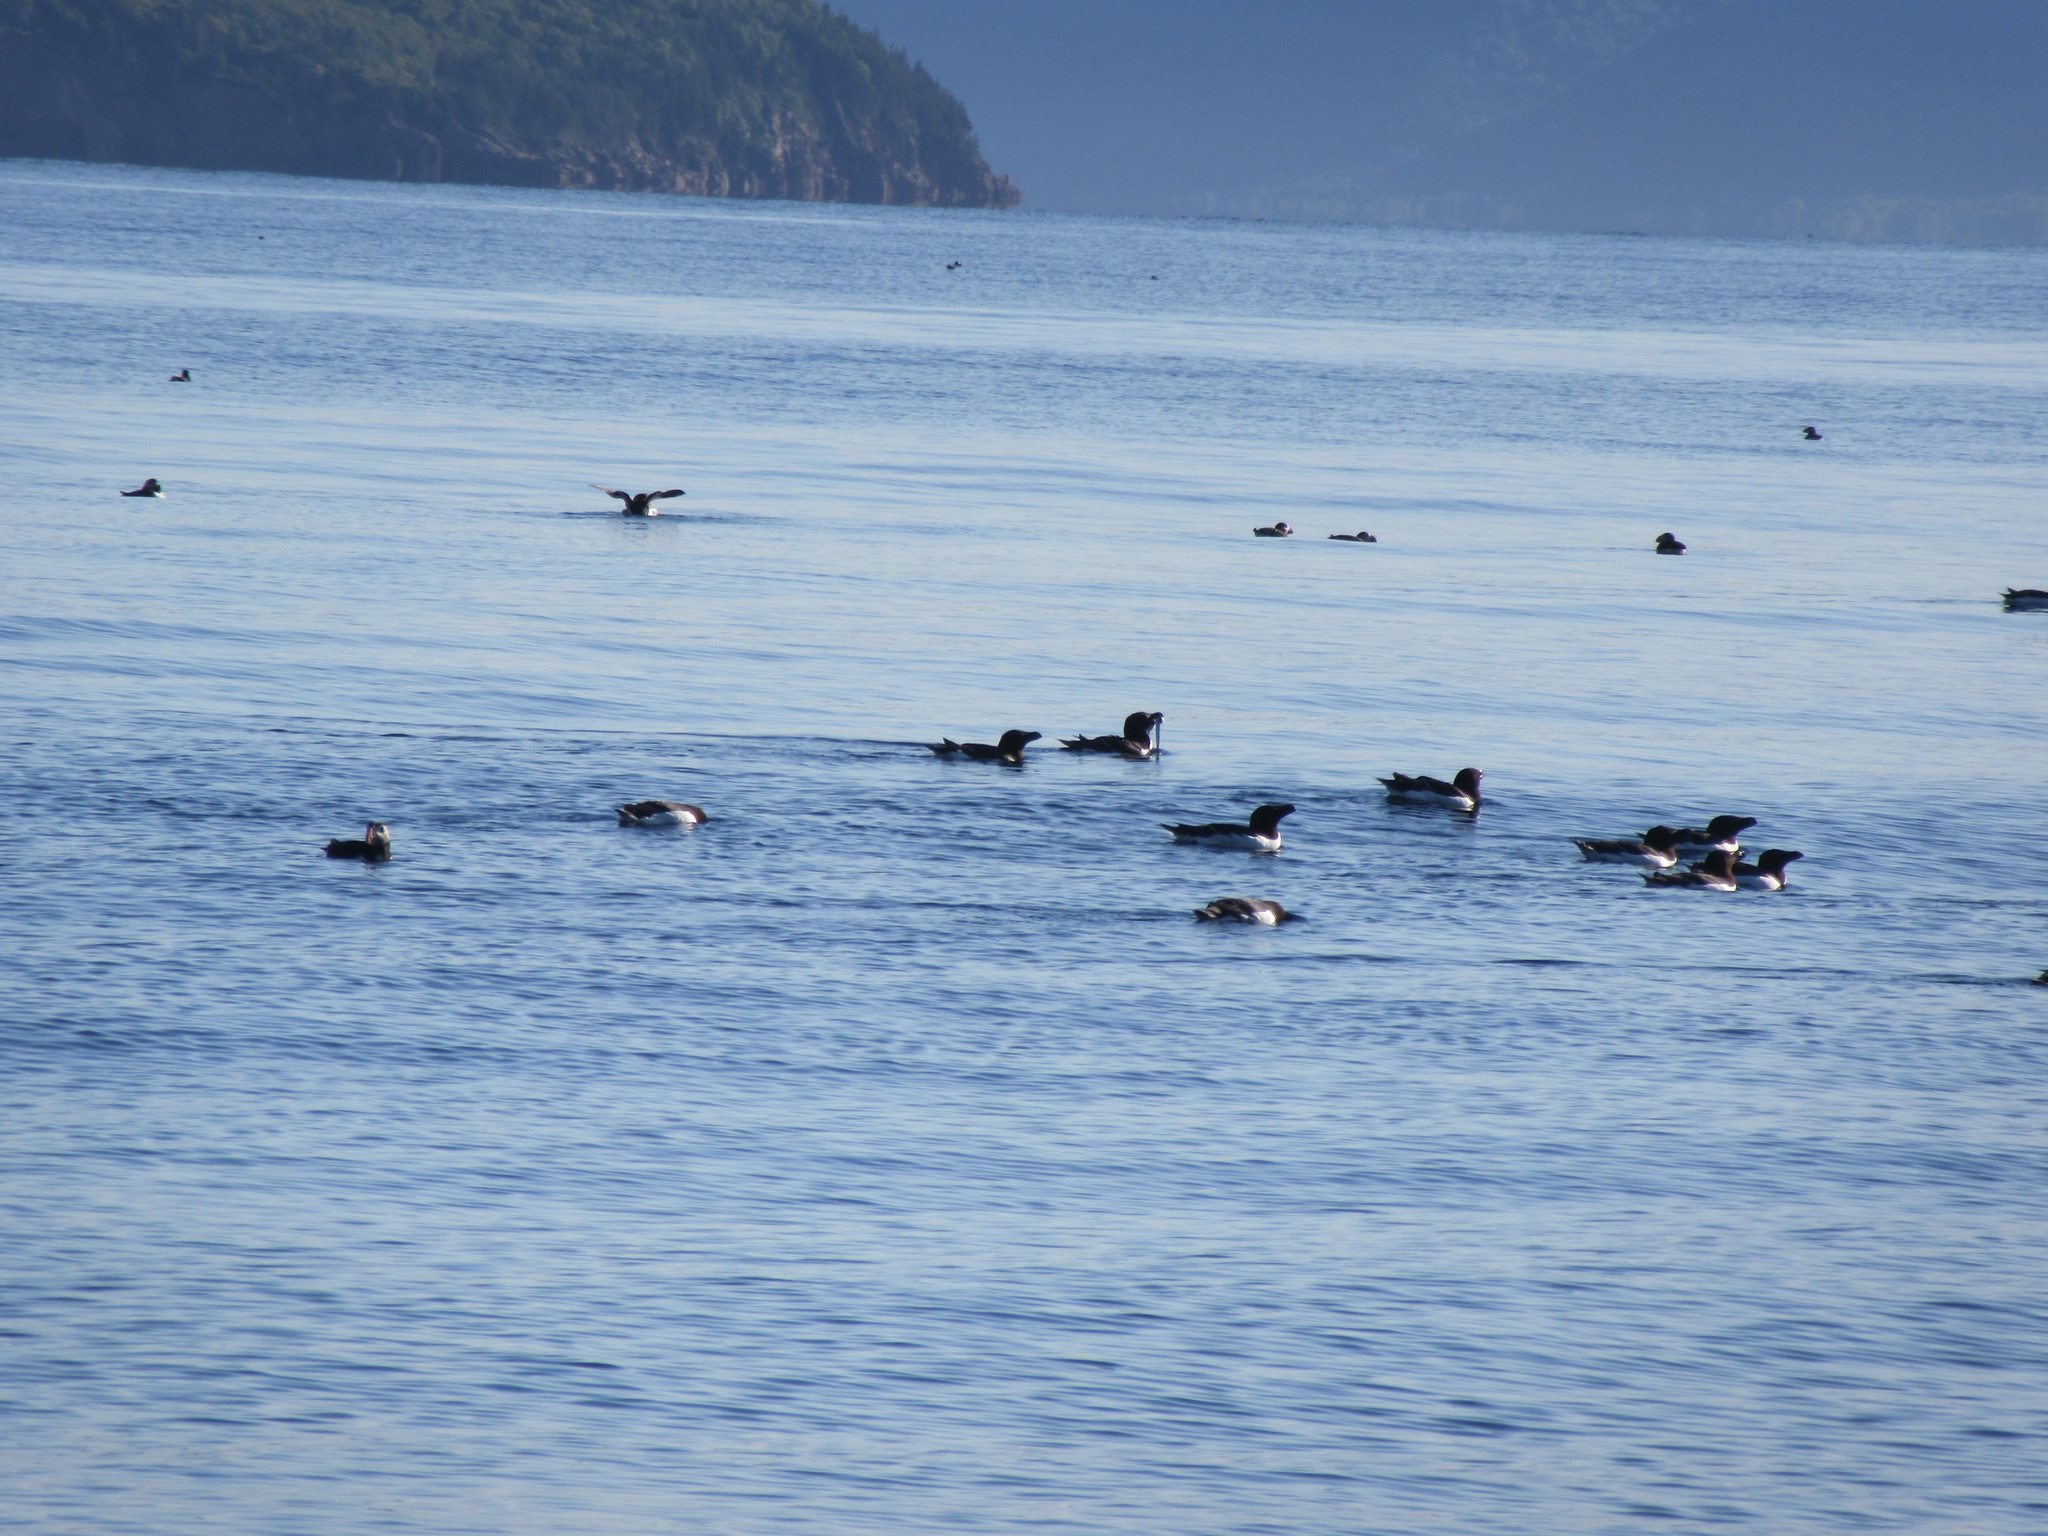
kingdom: Animalia
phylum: Chordata
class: Aves
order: Charadriiformes
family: Alcidae
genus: Alca
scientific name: Alca torda
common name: Razorbill
